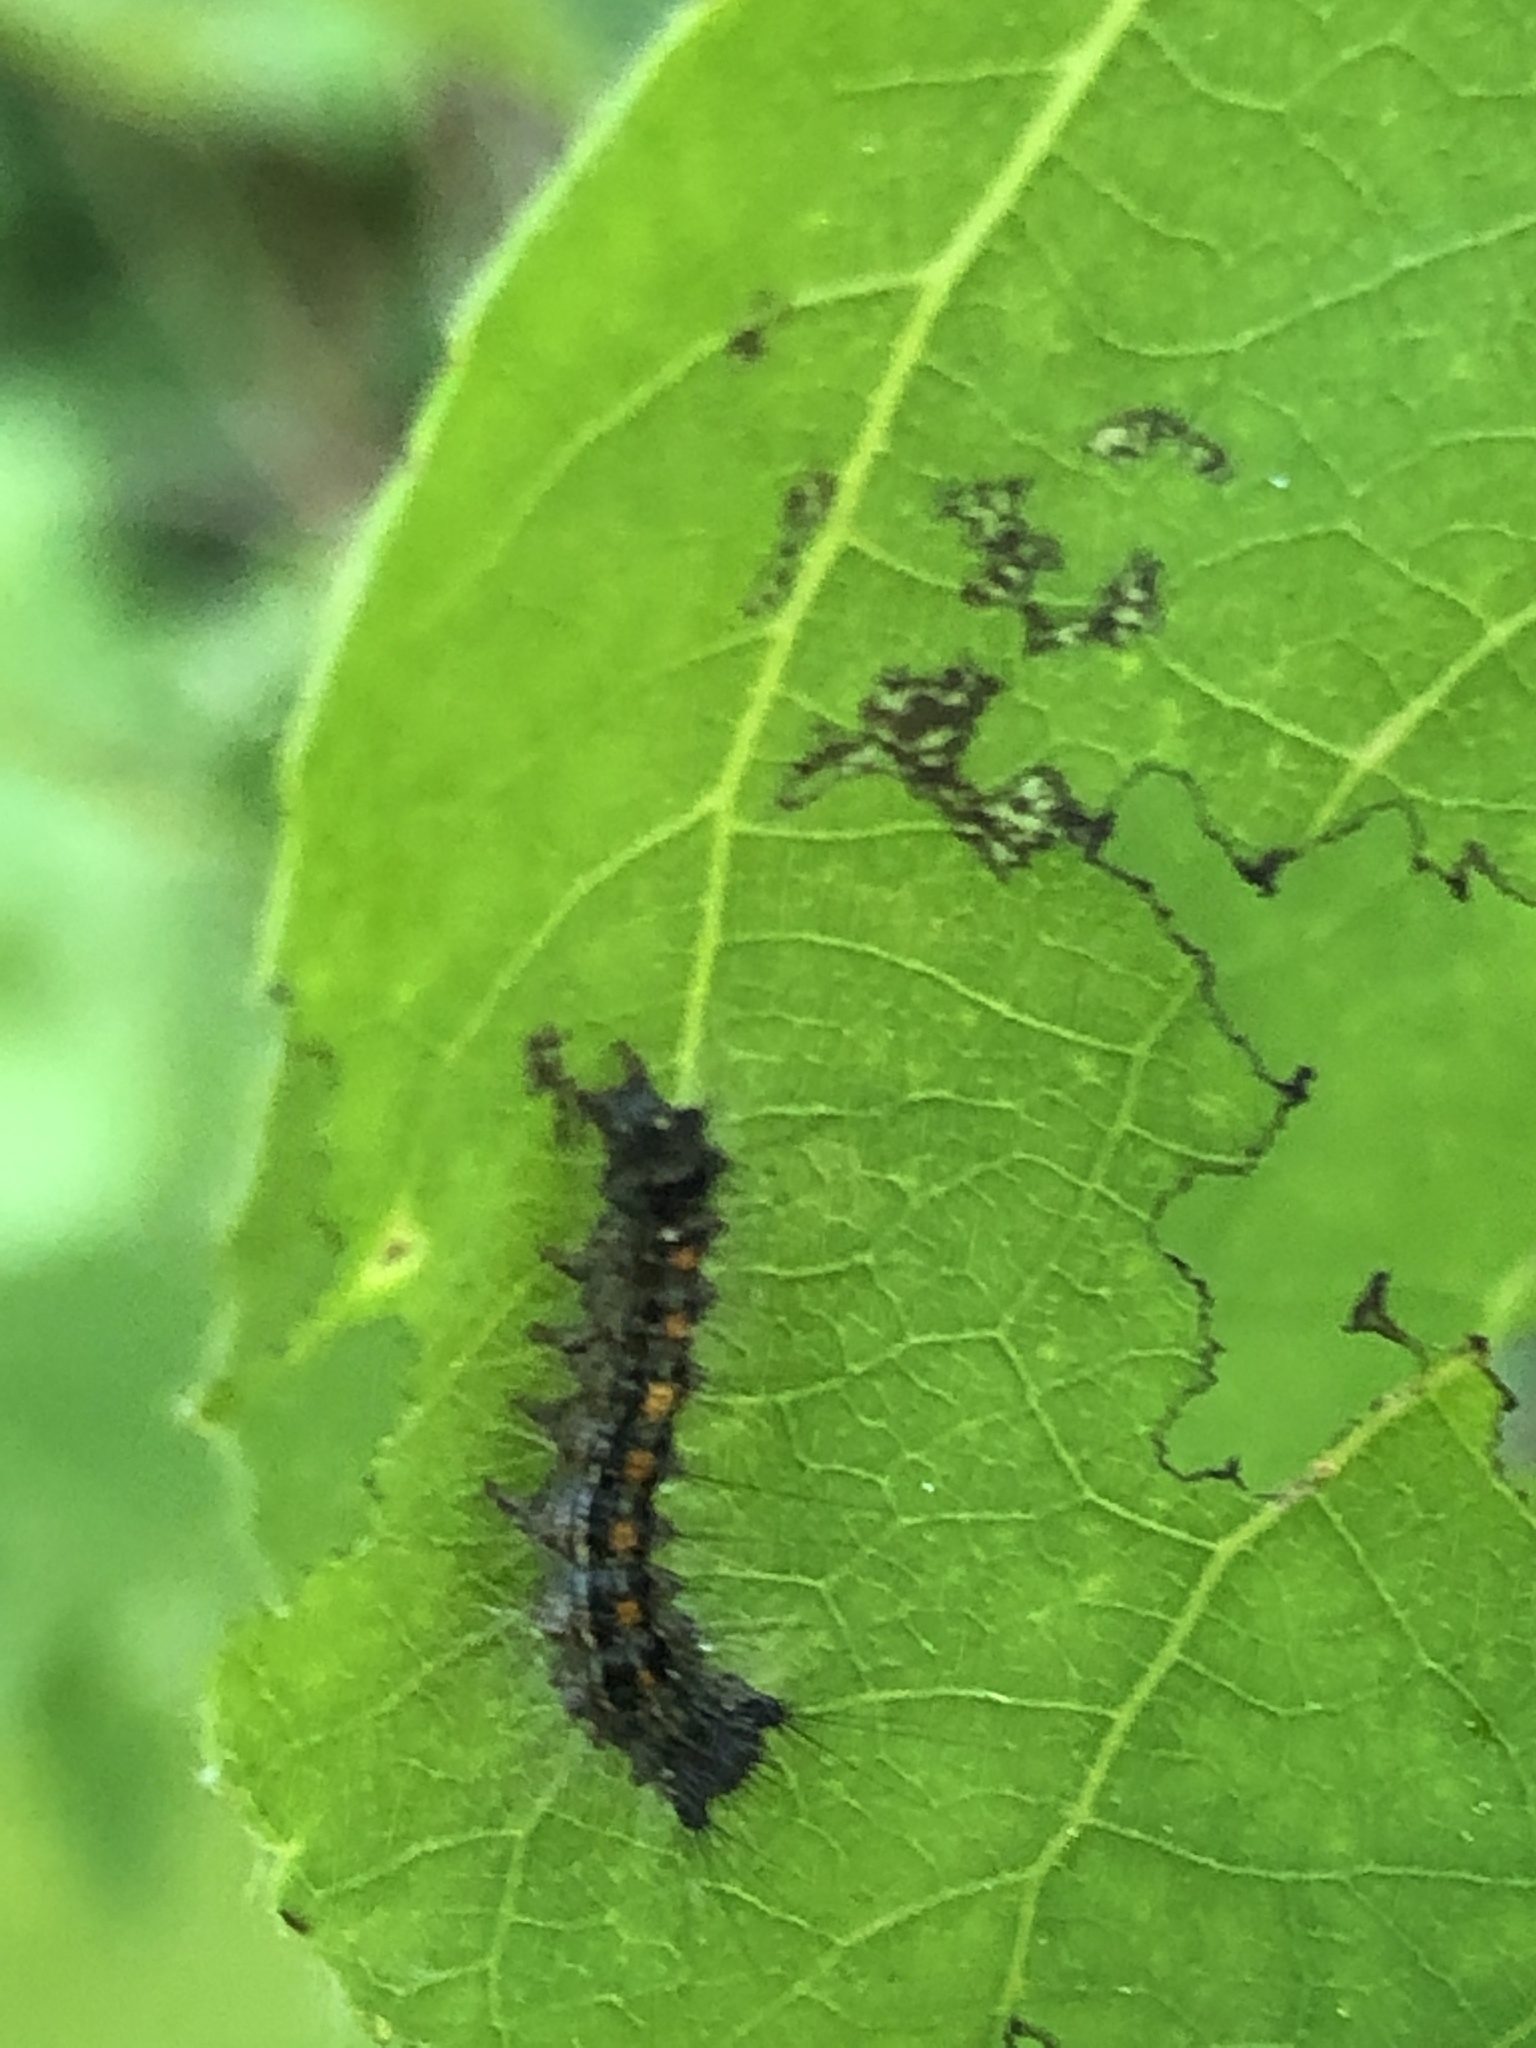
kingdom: Animalia
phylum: Arthropoda
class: Insecta
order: Lepidoptera
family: Erebidae
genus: Lymantria
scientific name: Lymantria dispar
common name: Gypsy moth
